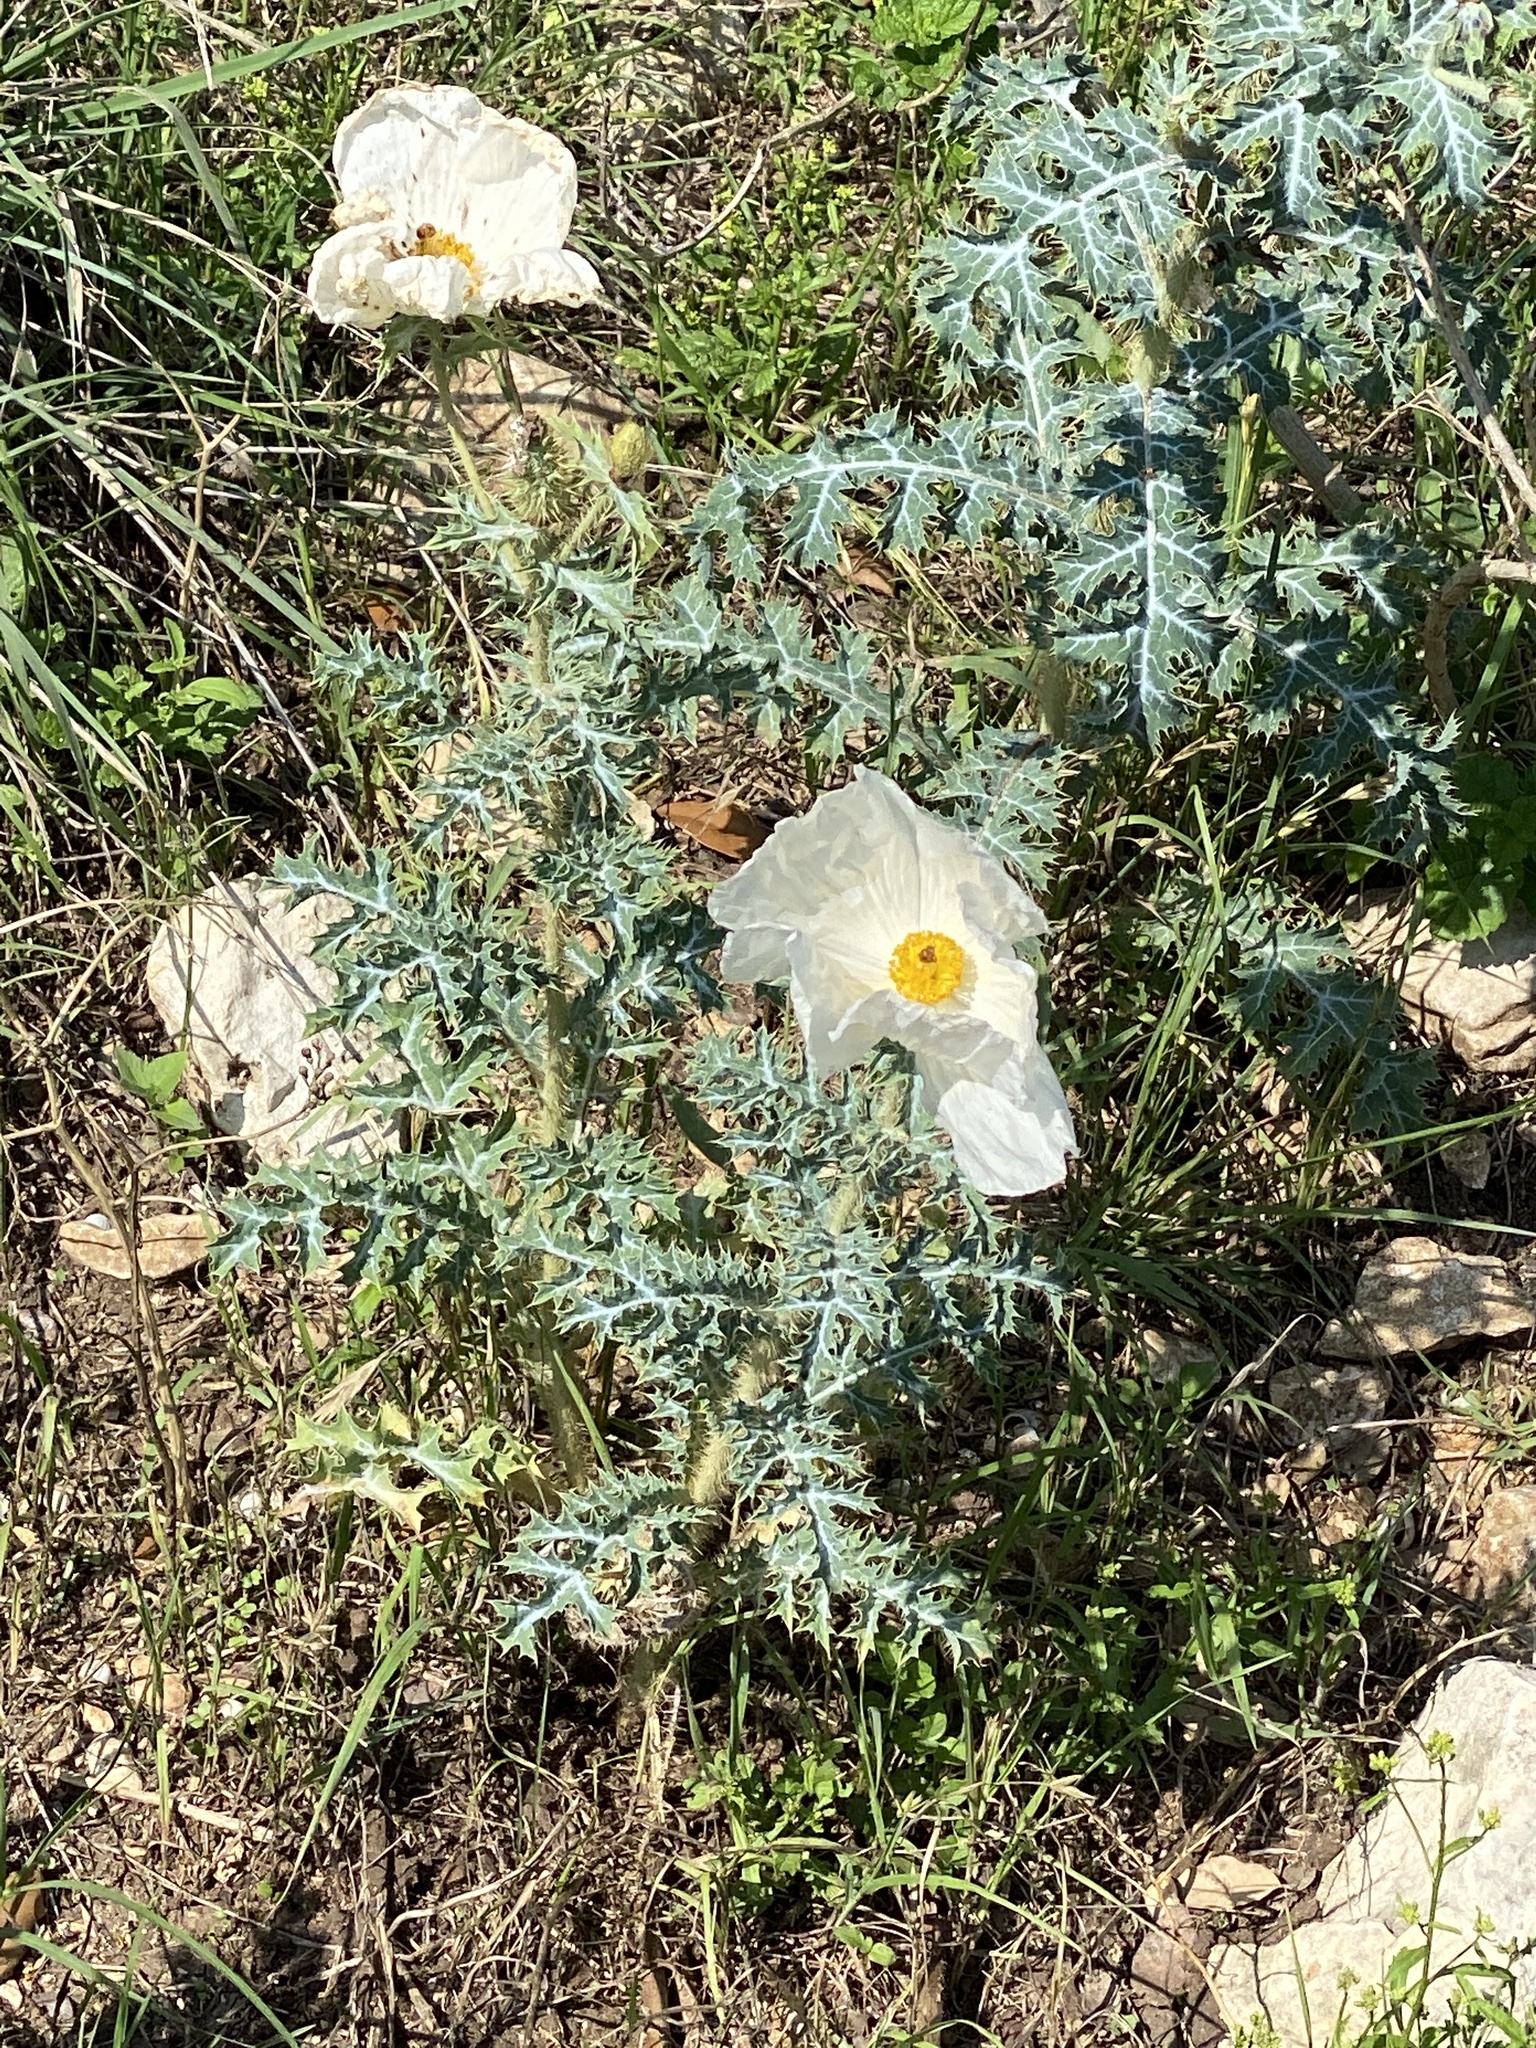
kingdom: Plantae
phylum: Tracheophyta
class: Magnoliopsida
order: Ranunculales
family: Papaveraceae
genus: Argemone
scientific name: Argemone albiflora
